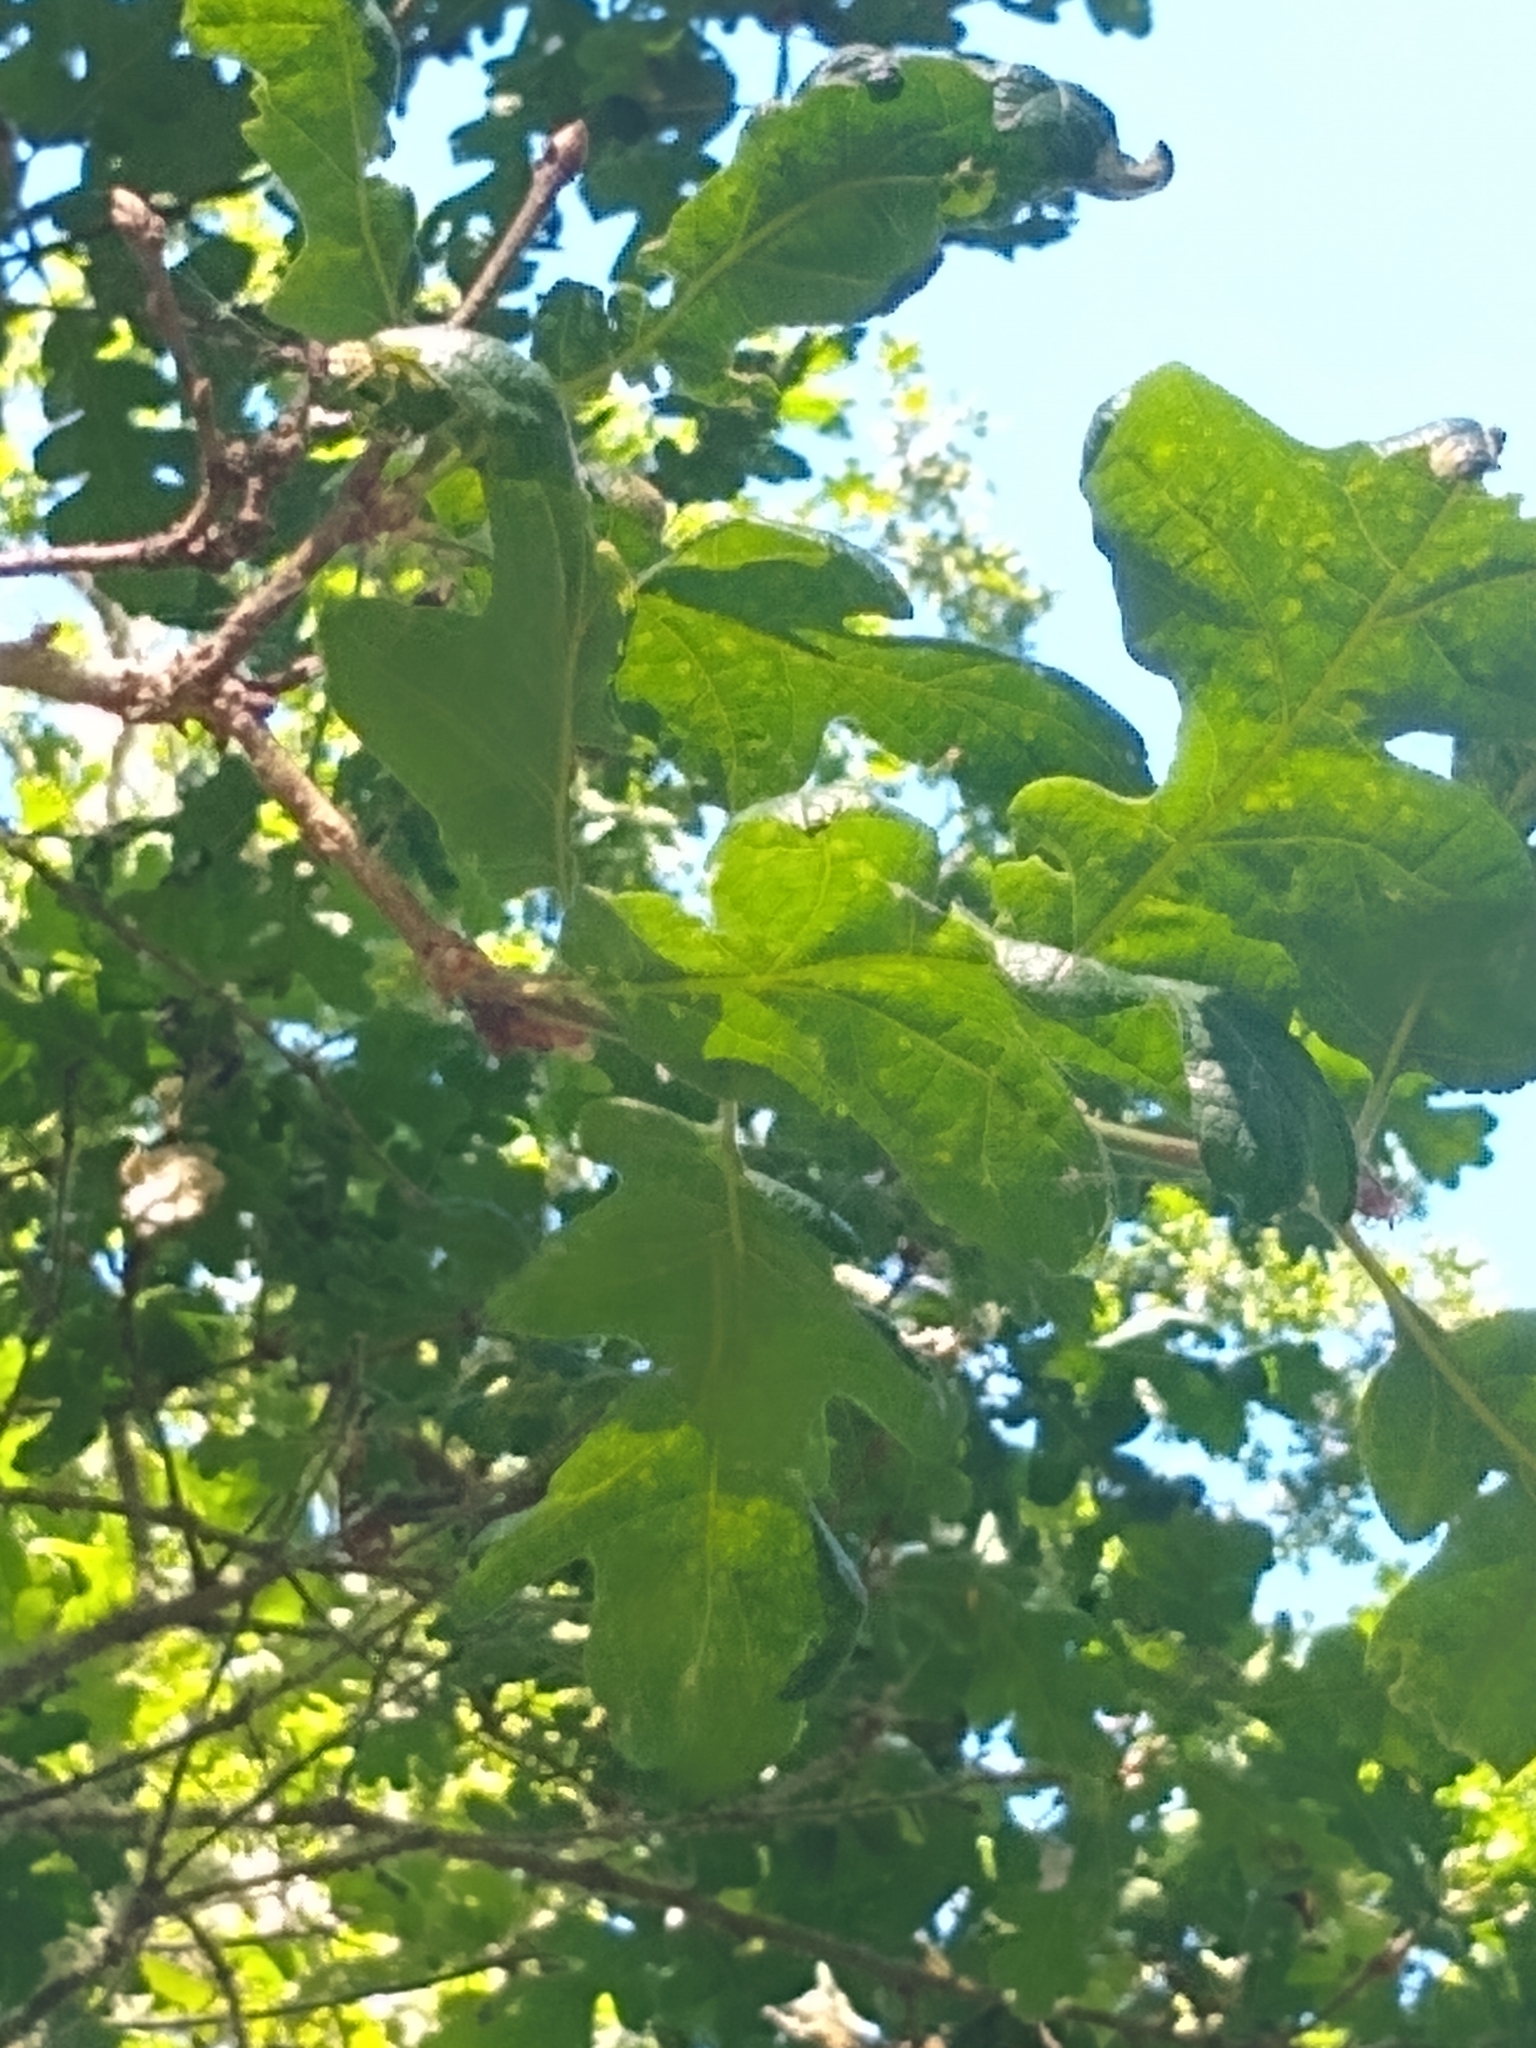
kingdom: Plantae
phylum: Tracheophyta
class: Magnoliopsida
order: Fagales
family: Fagaceae
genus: Quercus
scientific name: Quercus garryana
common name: Garry oak
